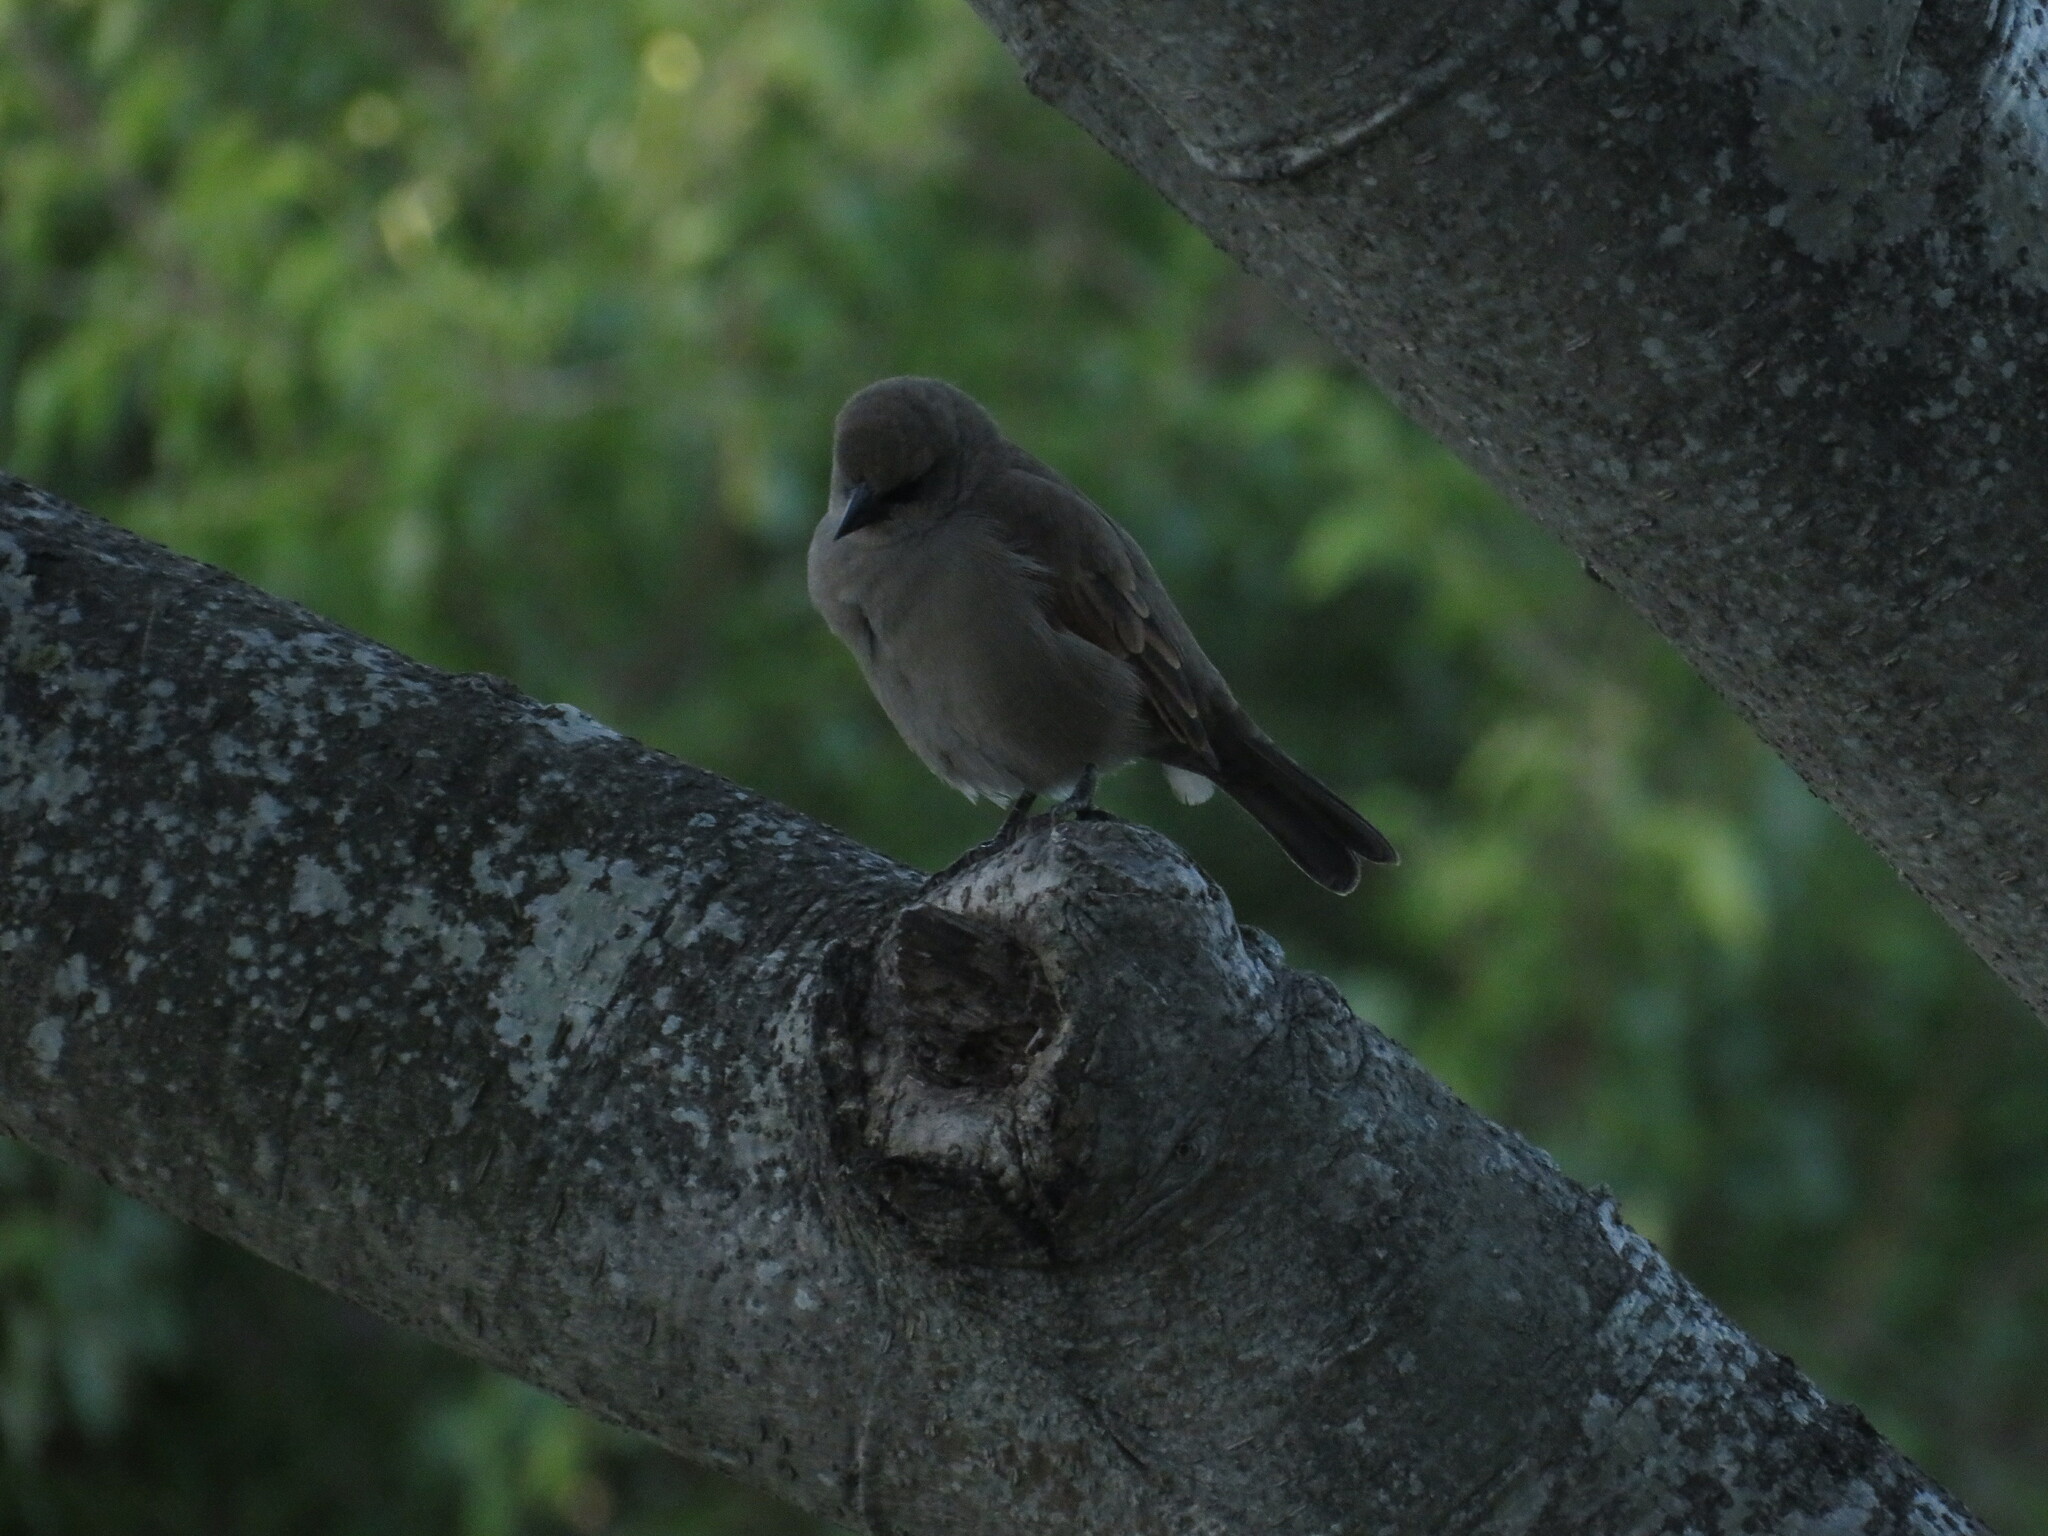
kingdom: Animalia
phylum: Chordata
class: Aves
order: Passeriformes
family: Icteridae
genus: Agelaioides
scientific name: Agelaioides badius
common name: Baywing
